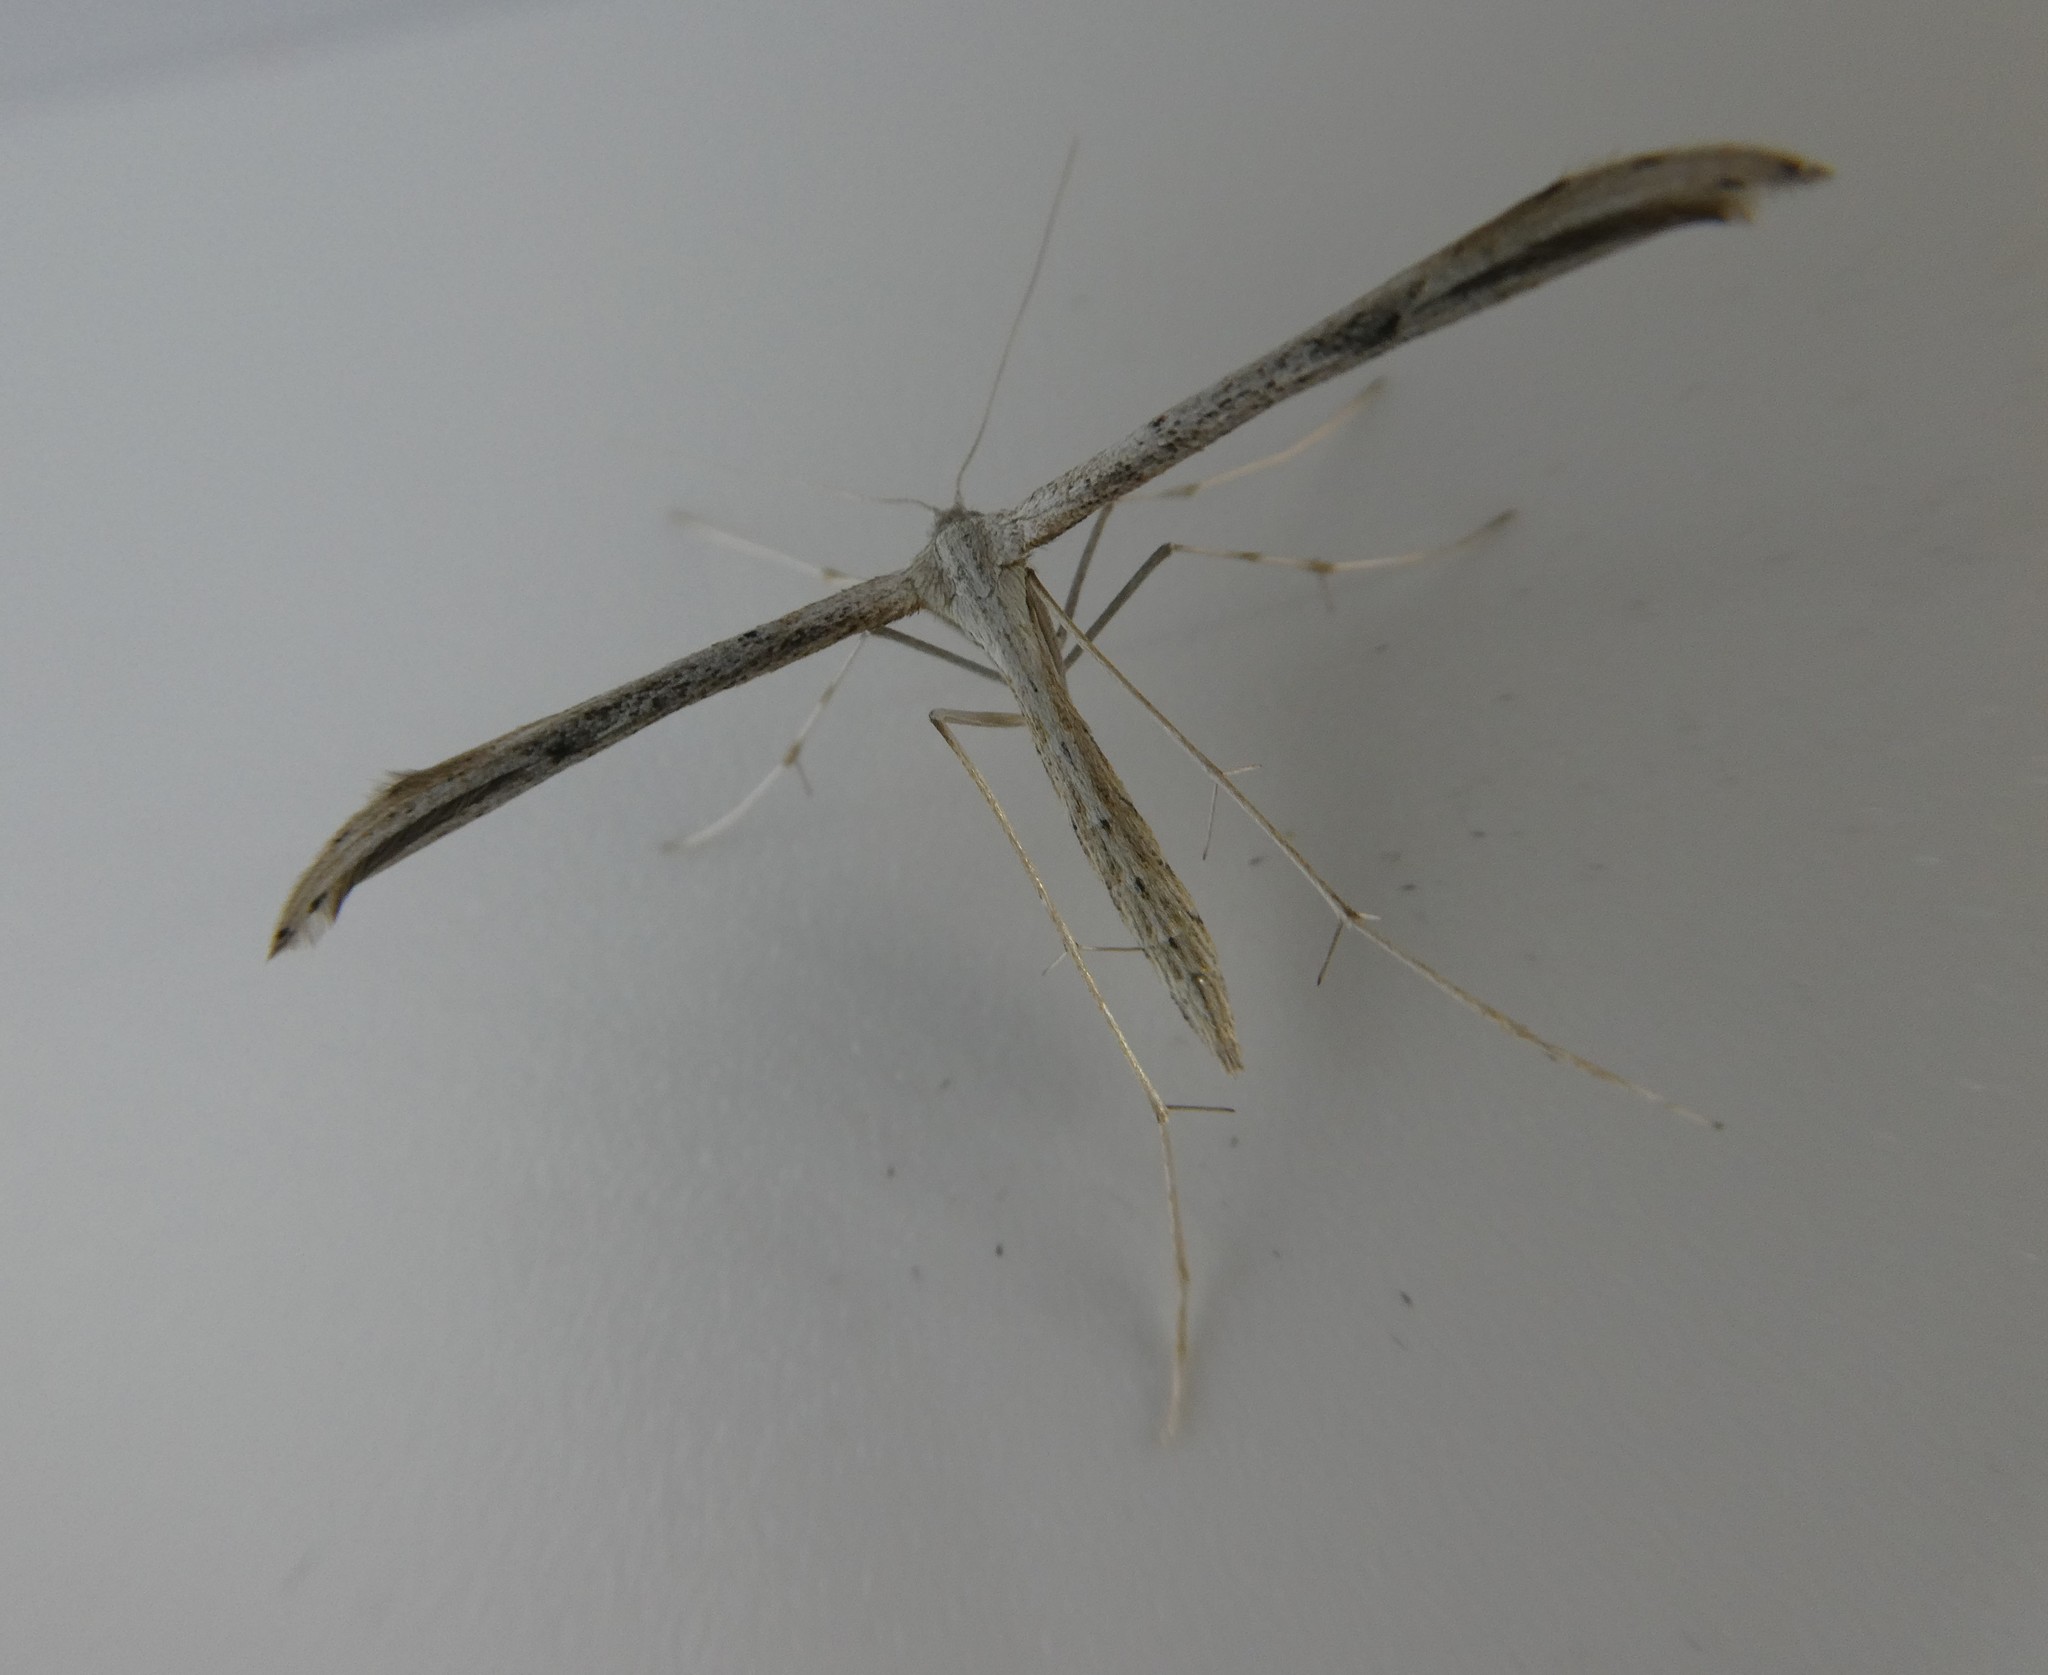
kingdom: Animalia
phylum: Arthropoda
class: Insecta
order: Lepidoptera
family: Pterophoridae
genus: Emmelina
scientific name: Emmelina monodactyla
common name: Common plume
